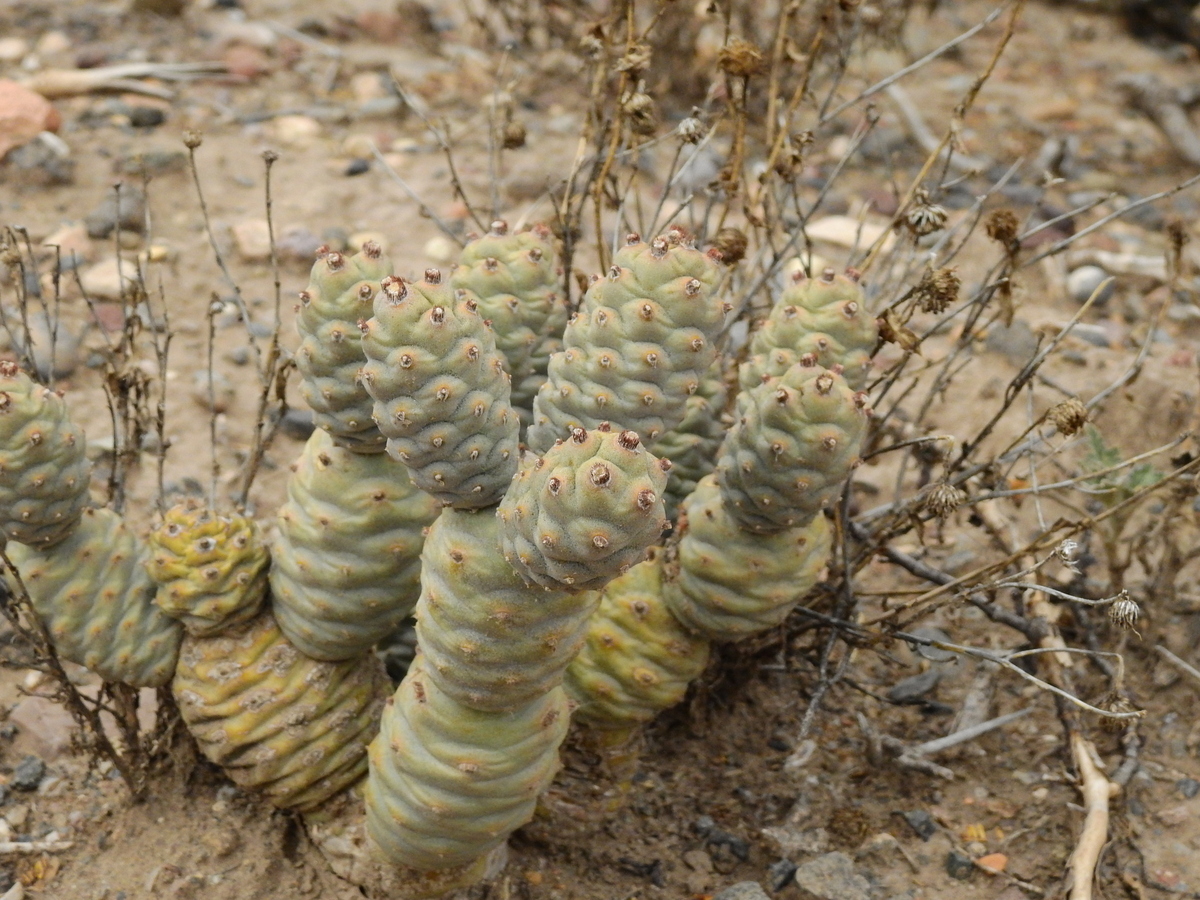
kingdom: Plantae
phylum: Tracheophyta
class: Magnoliopsida
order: Caryophyllales
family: Cactaceae
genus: Tephrocactus
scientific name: Tephrocactus articulatus
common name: Paper cactus
